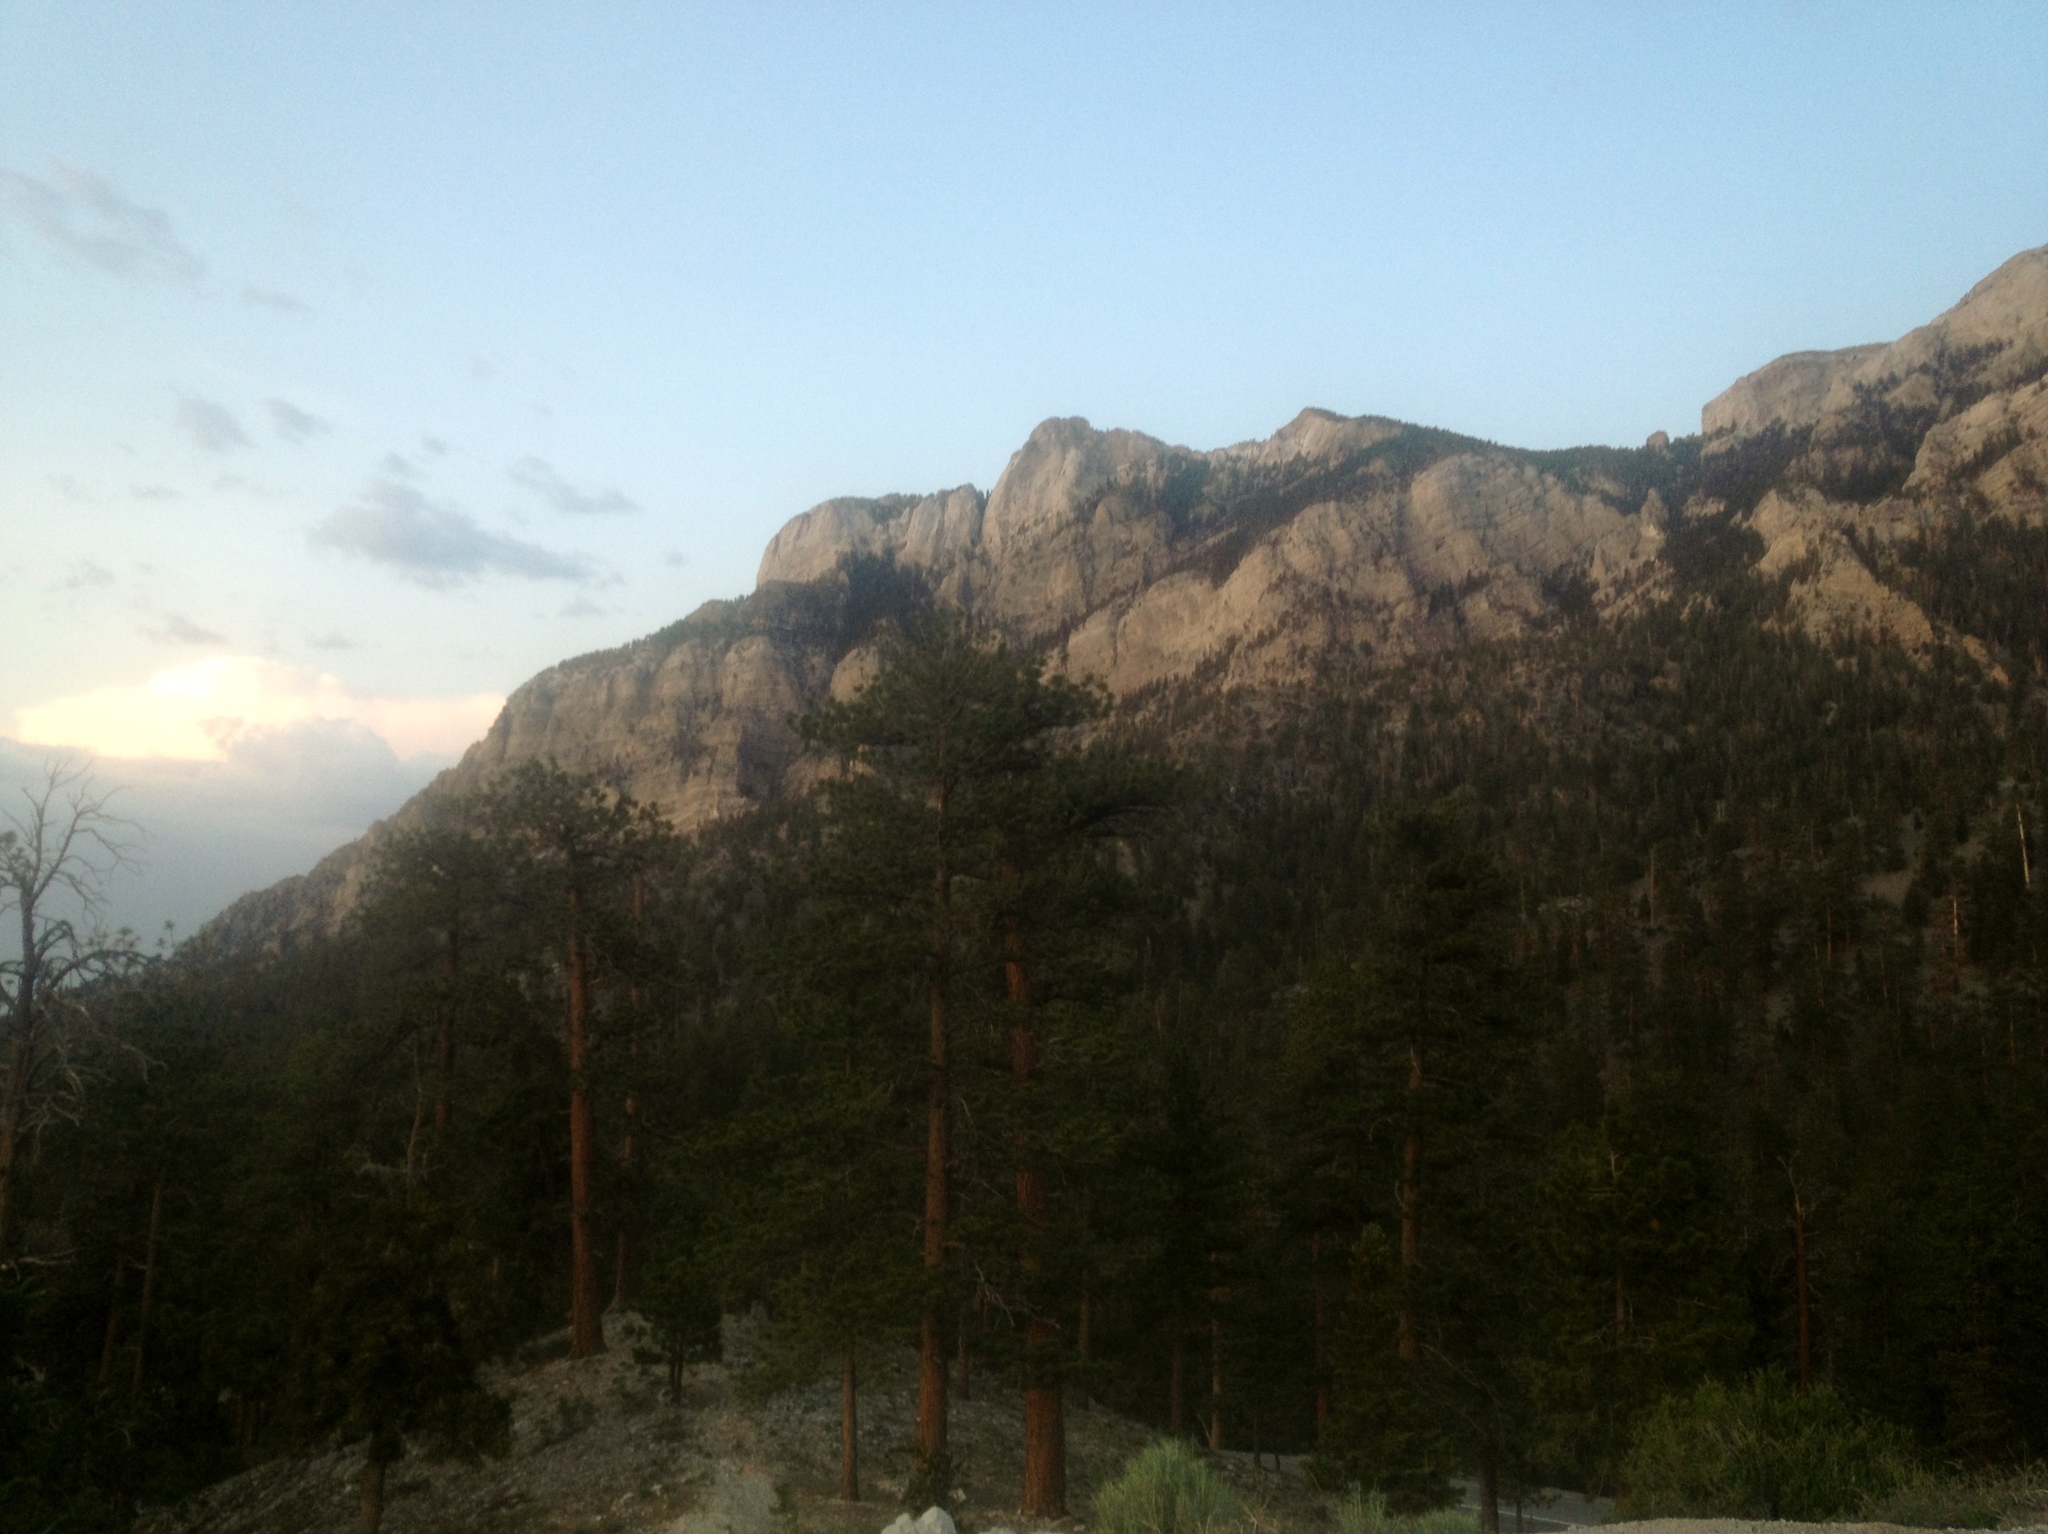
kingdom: Plantae
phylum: Tracheophyta
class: Pinopsida
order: Pinales
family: Pinaceae
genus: Pinus
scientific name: Pinus ponderosa
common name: Western yellow-pine
